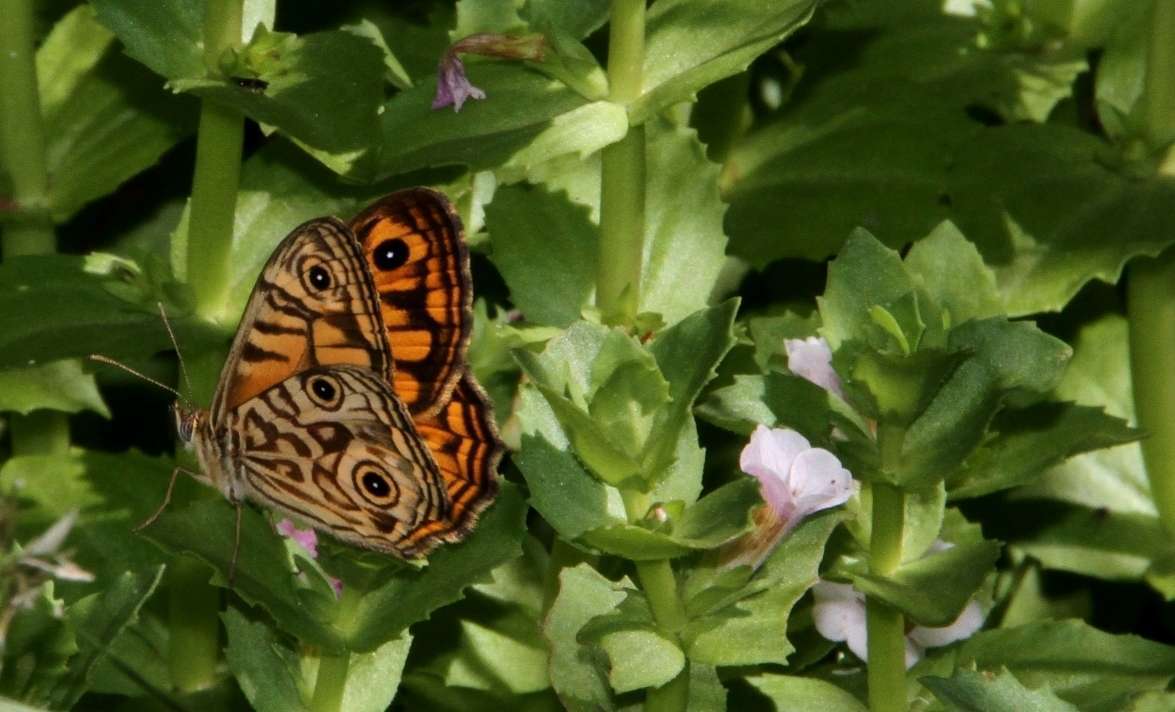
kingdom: Animalia
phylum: Arthropoda
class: Insecta
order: Lepidoptera
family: Nymphalidae
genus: Geitoneura
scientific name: Geitoneura acantha
